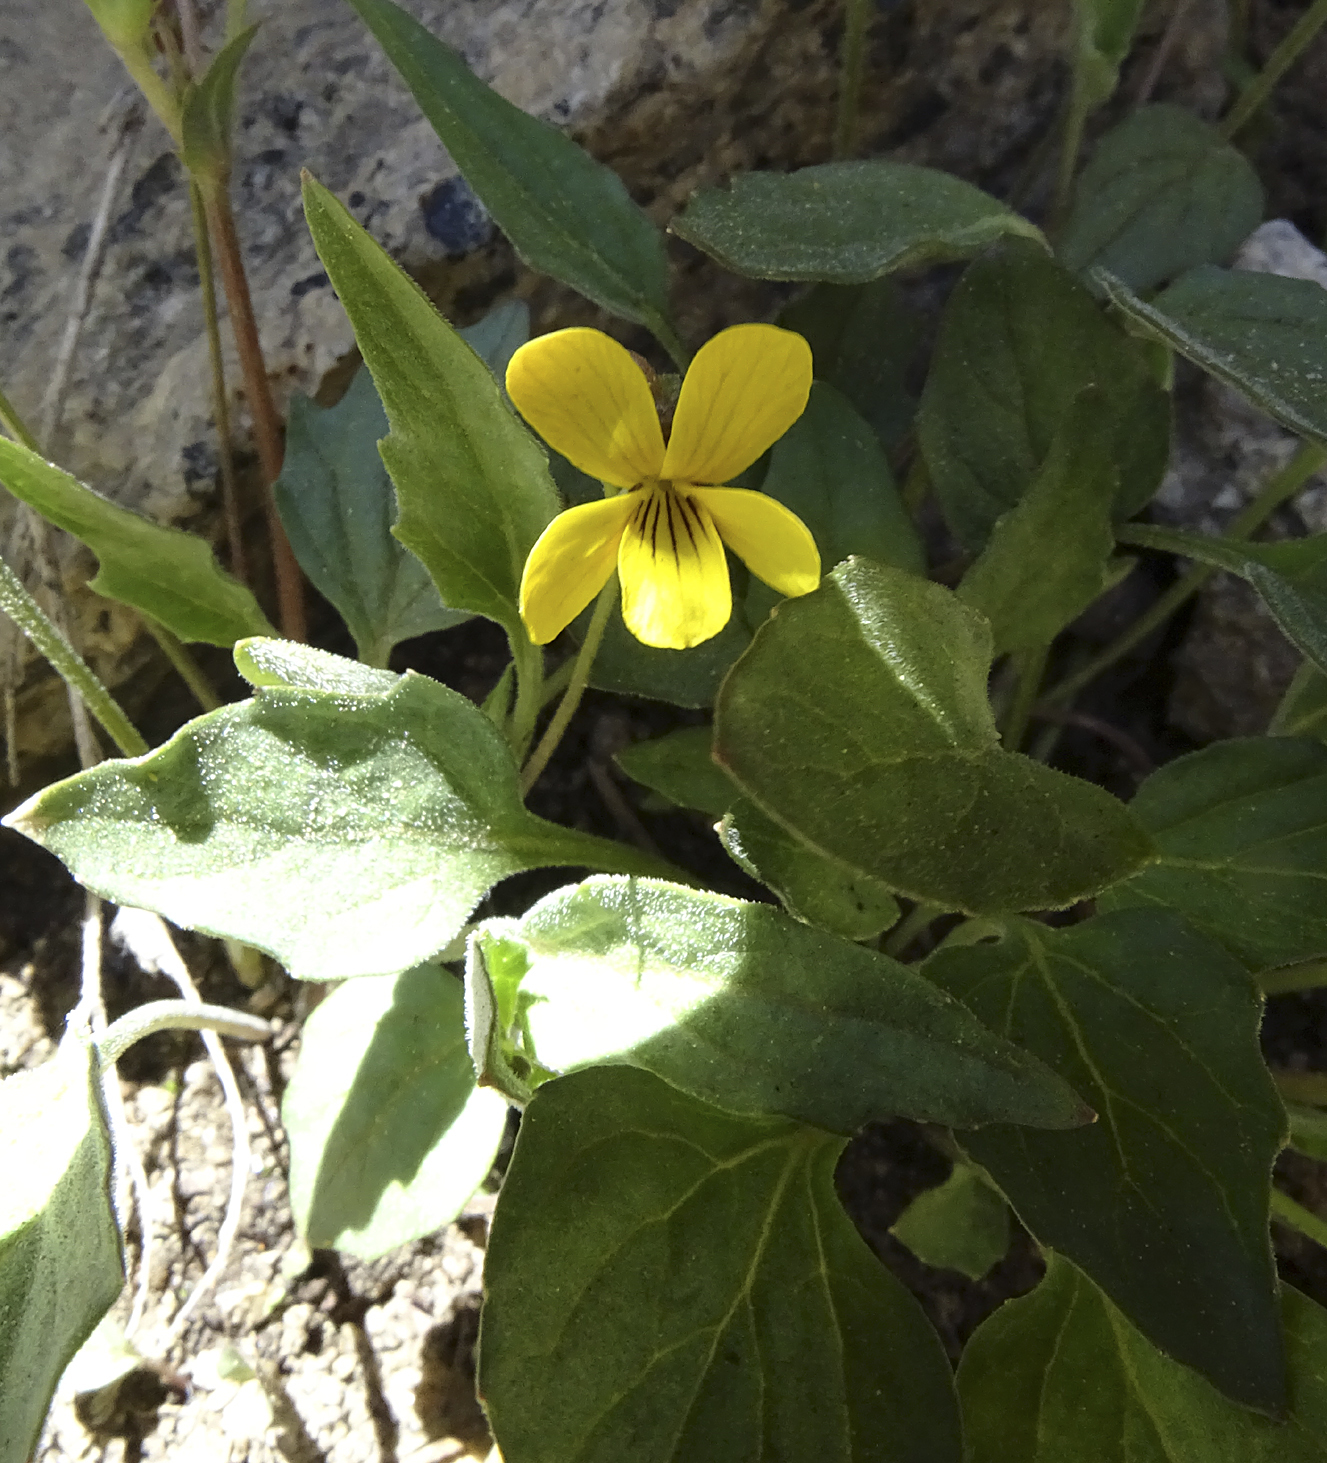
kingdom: Plantae
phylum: Tracheophyta
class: Magnoliopsida
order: Malpighiales
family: Violaceae
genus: Viola
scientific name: Viola purpurea
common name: Pine violet
